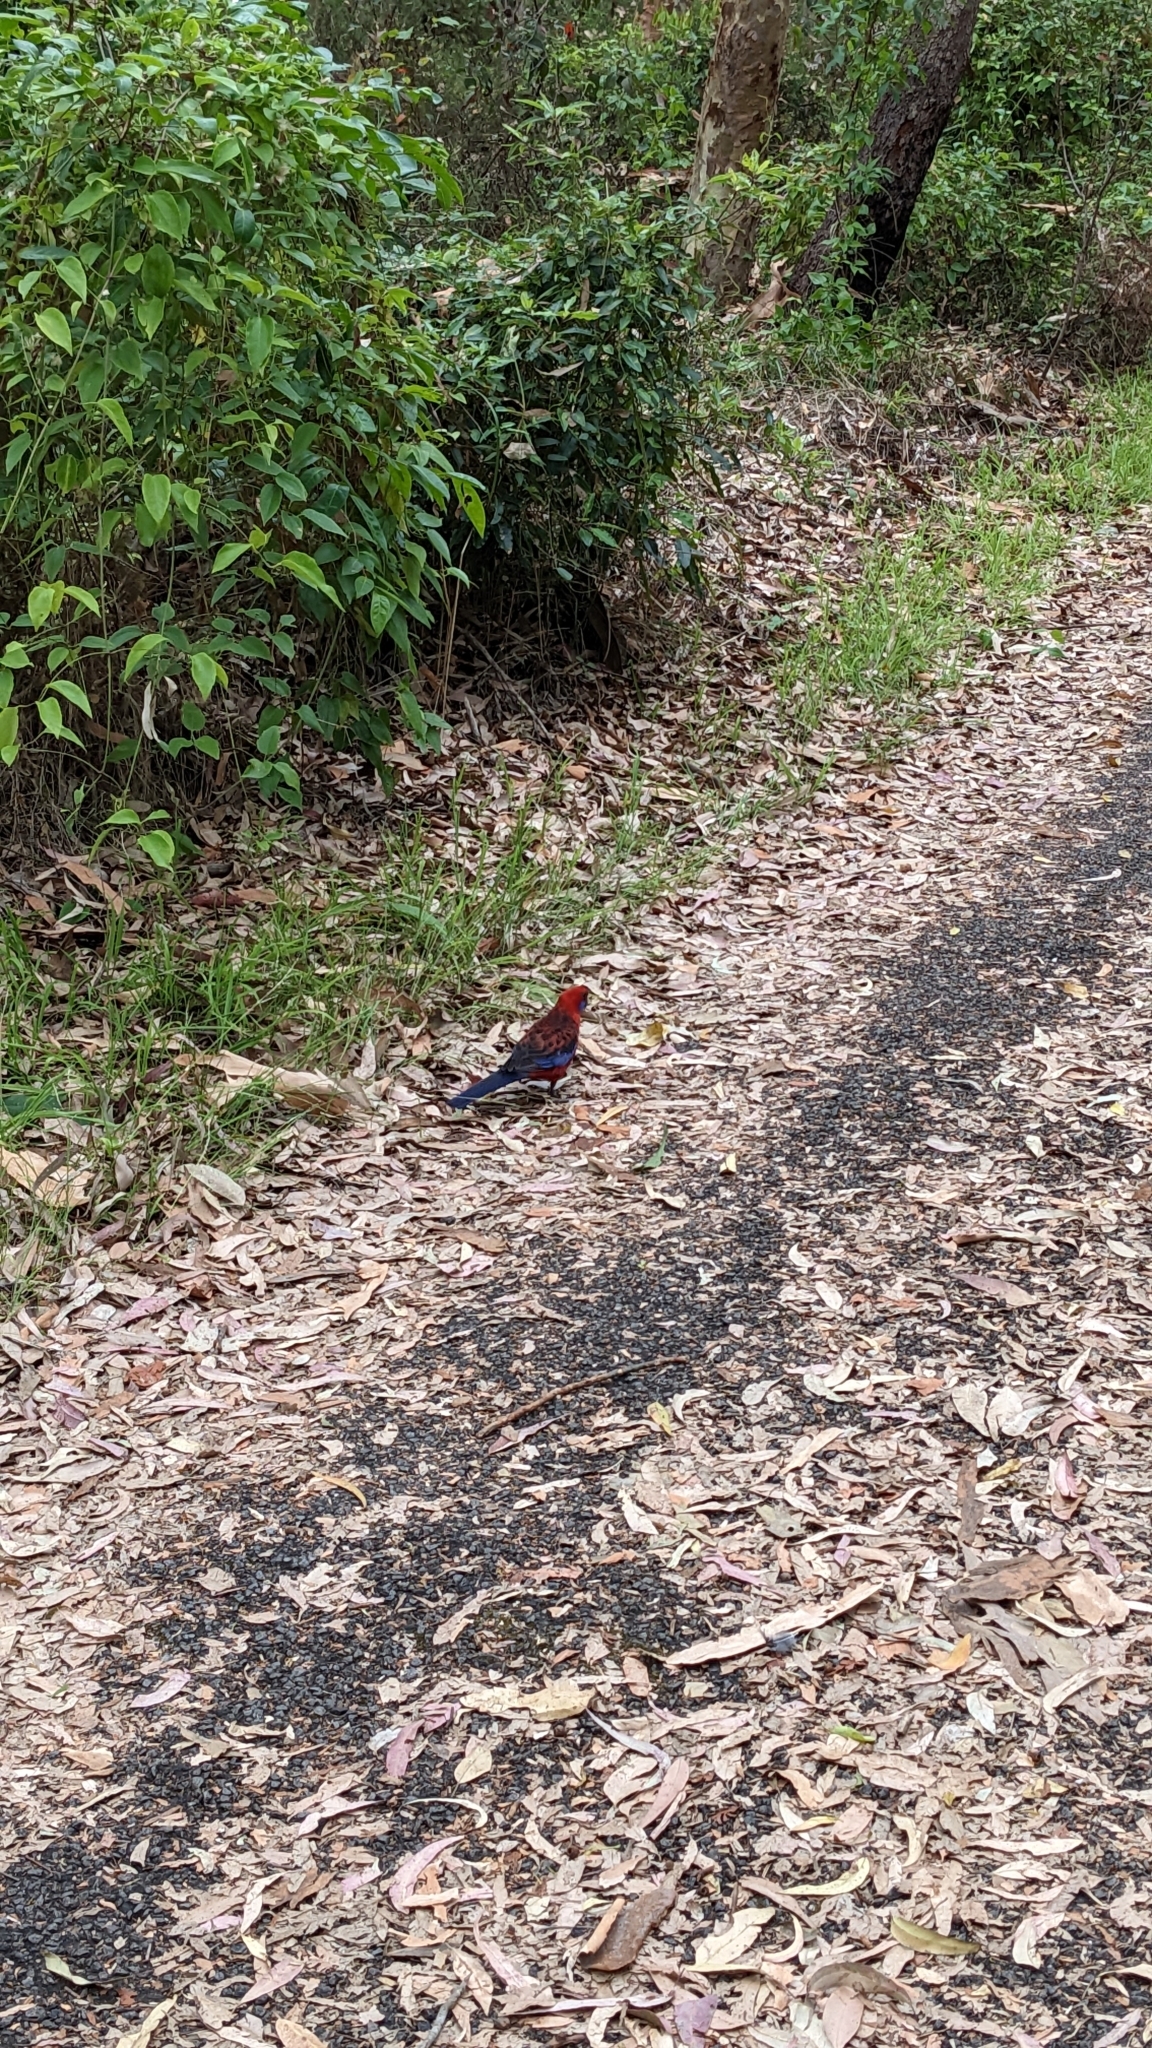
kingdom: Animalia
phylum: Chordata
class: Aves
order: Psittaciformes
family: Psittacidae
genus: Platycercus
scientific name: Platycercus elegans
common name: Crimson rosella
